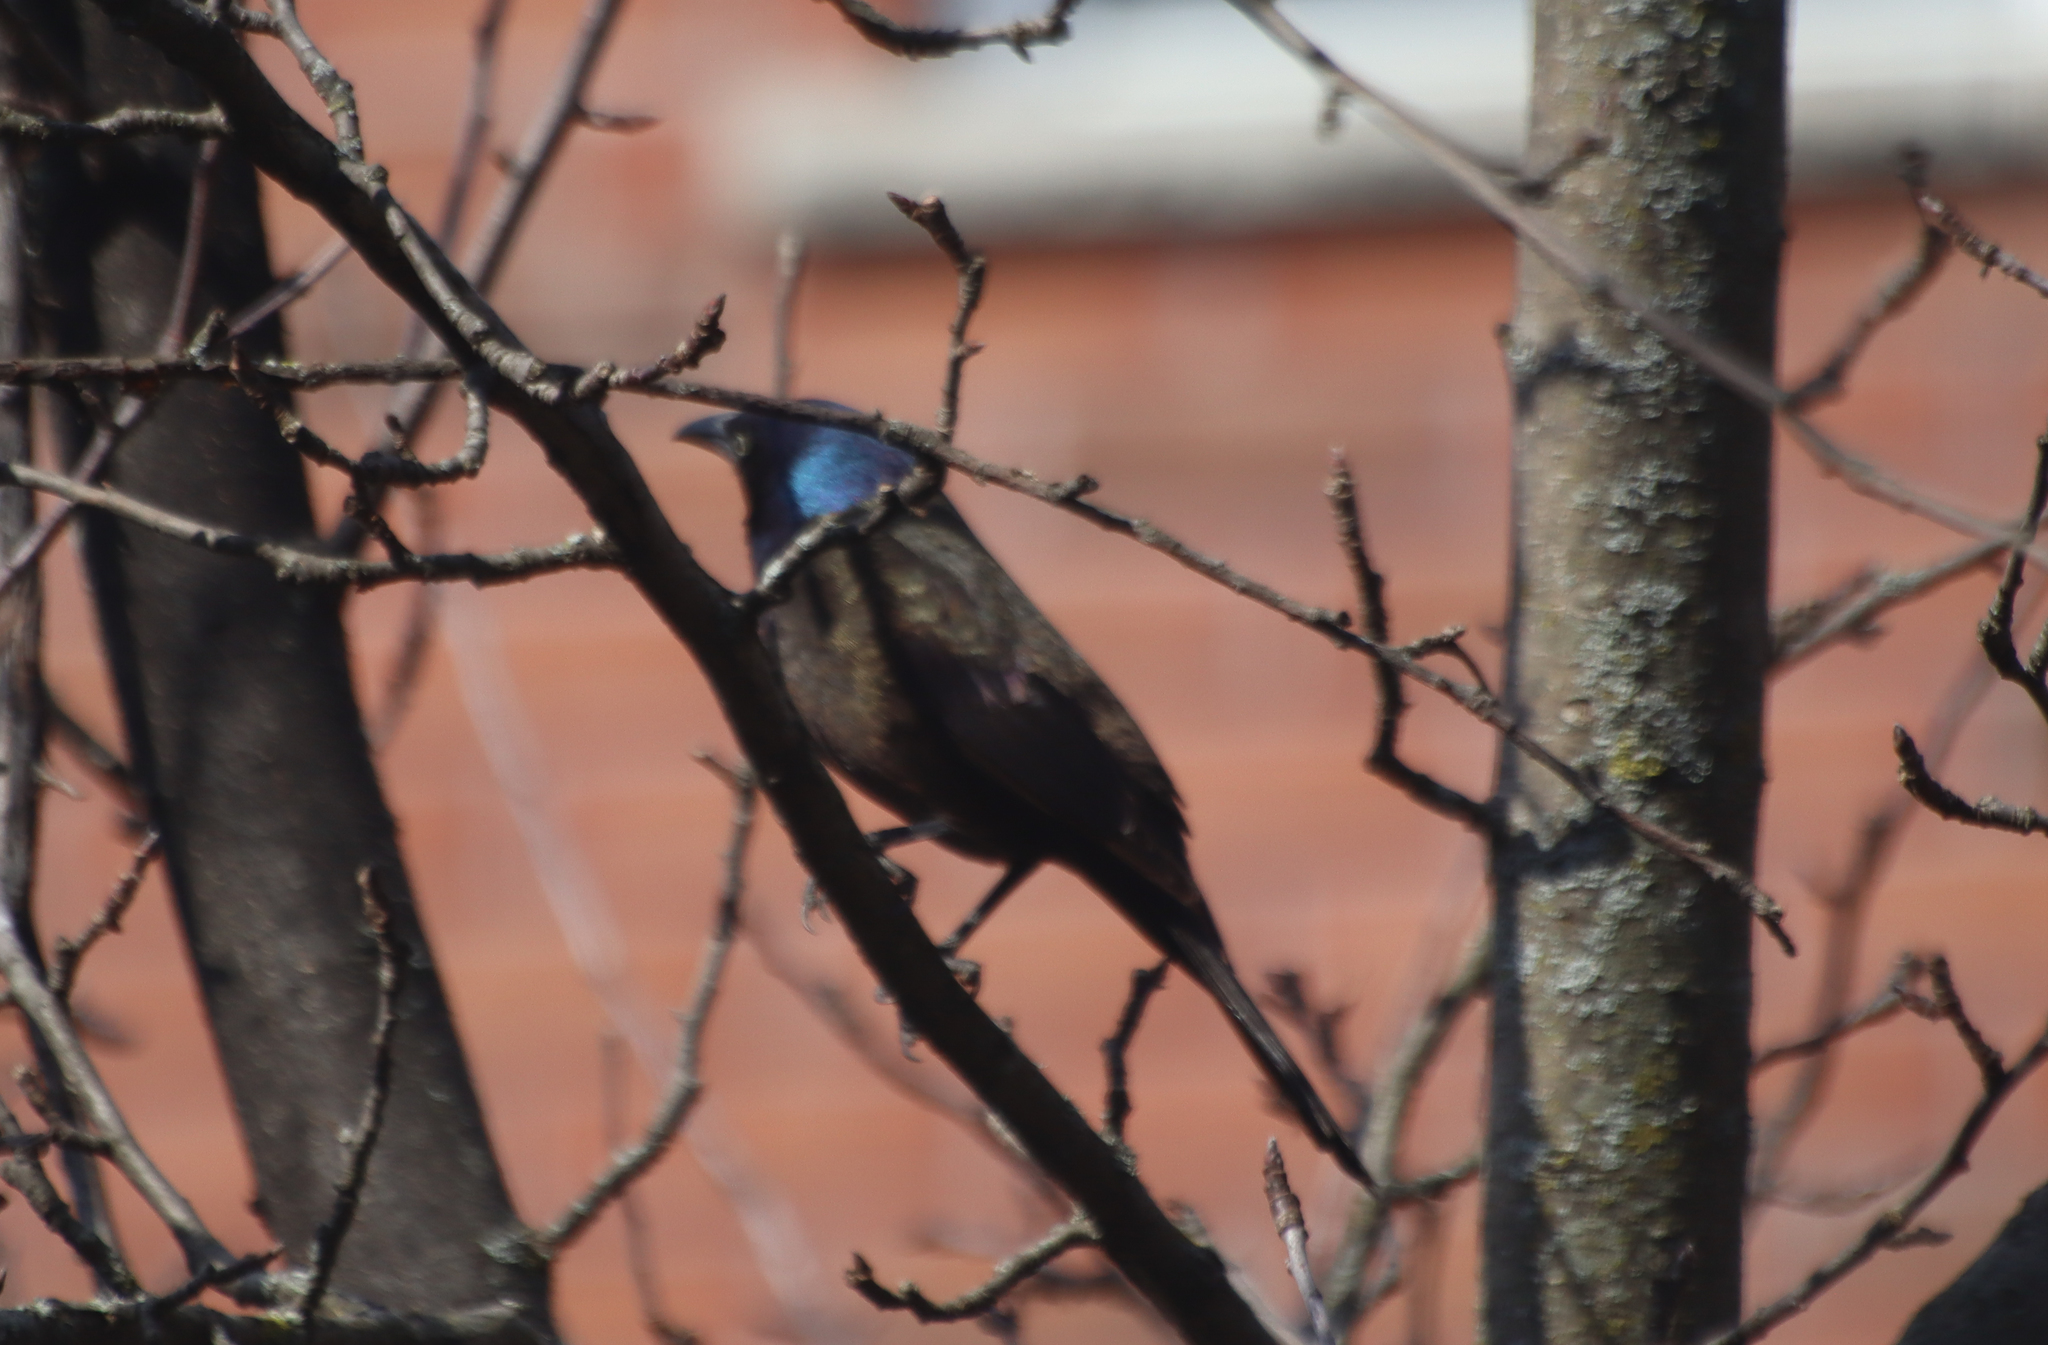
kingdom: Animalia
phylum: Chordata
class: Aves
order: Passeriformes
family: Icteridae
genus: Quiscalus
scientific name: Quiscalus quiscula
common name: Common grackle
